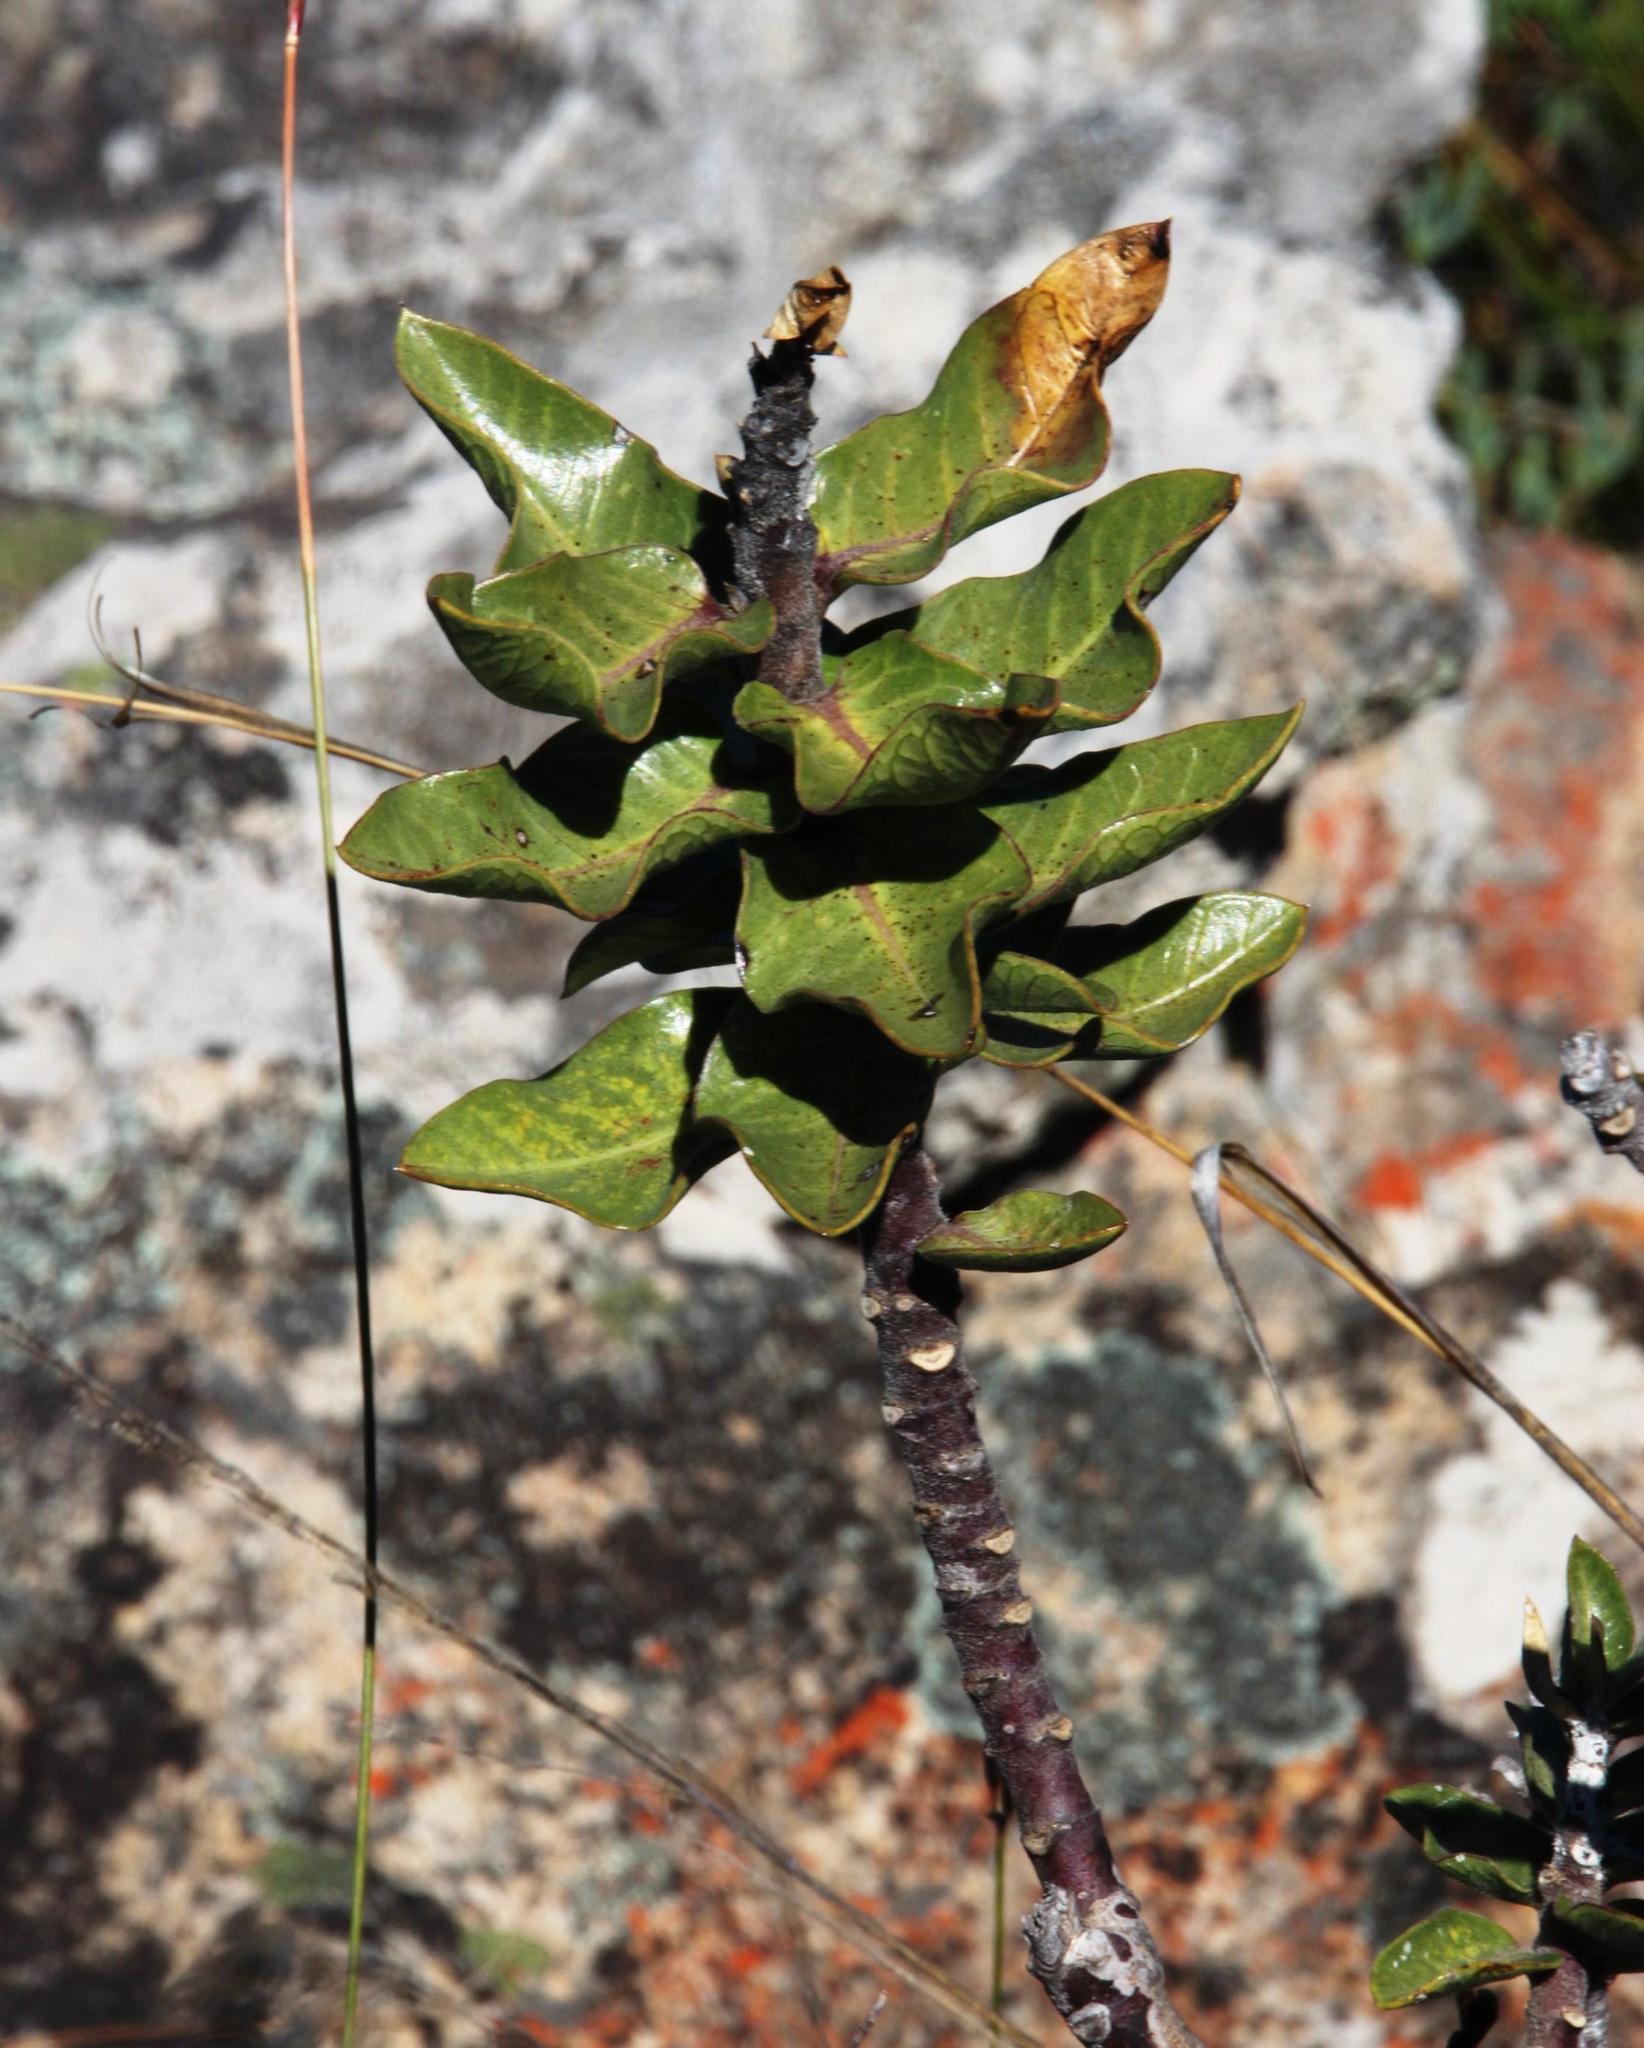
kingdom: Plantae
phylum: Tracheophyta
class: Magnoliopsida
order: Gentianales
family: Apocynaceae
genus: Gomphocarpus
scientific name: Gomphocarpus cancellatus
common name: Wild cotton
